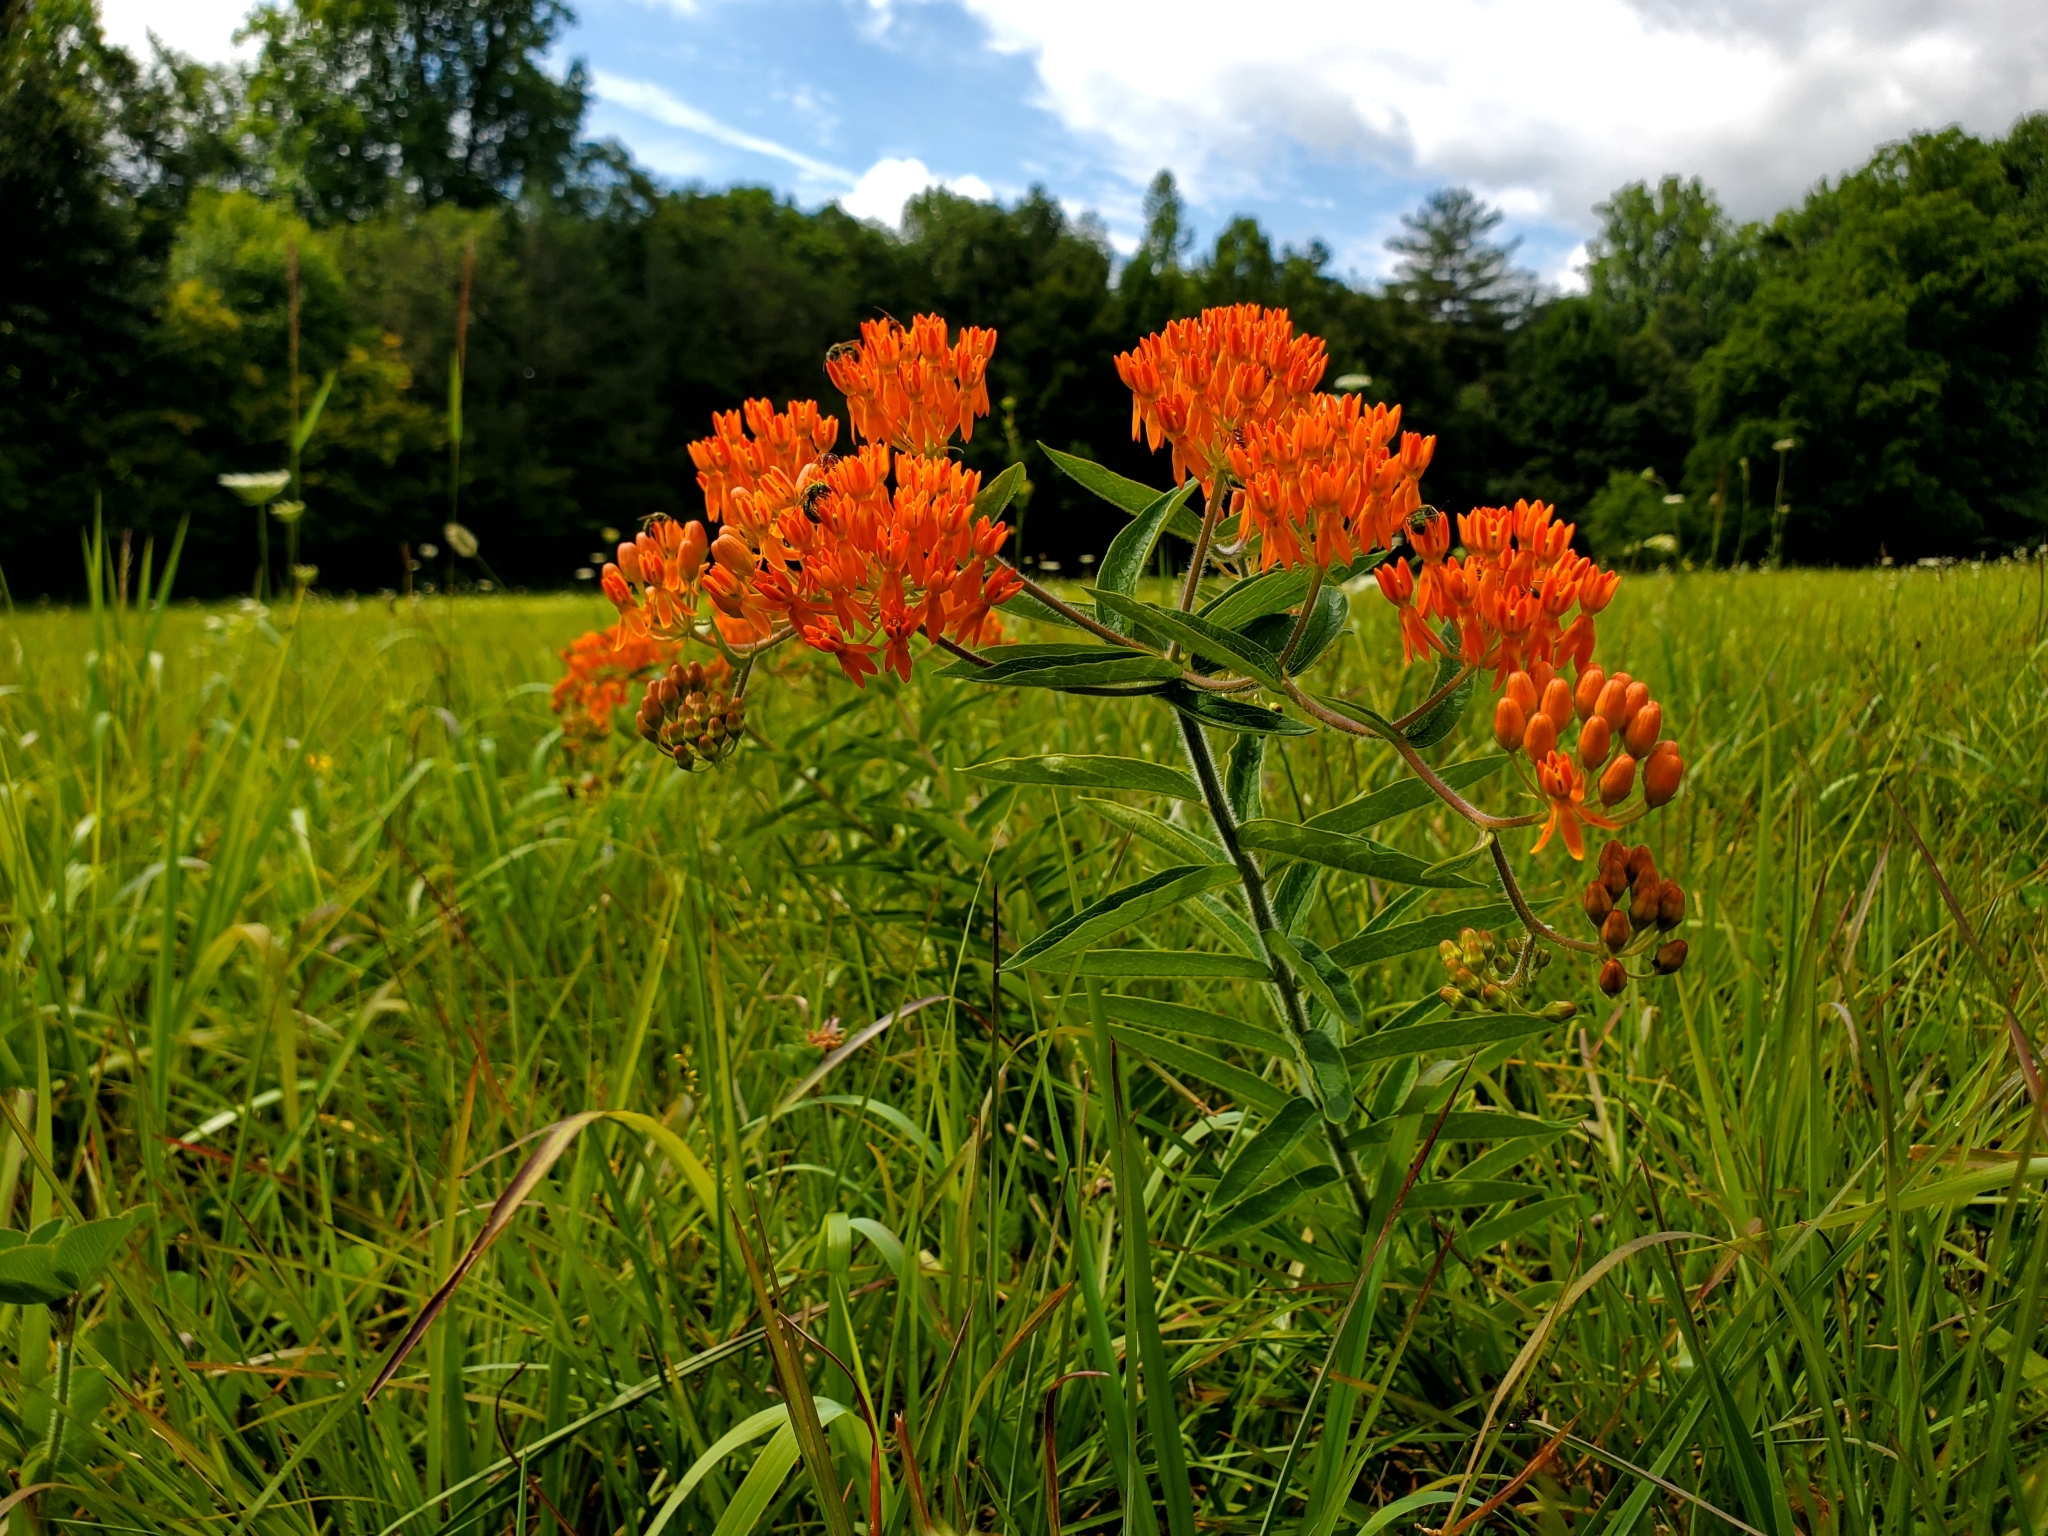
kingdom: Plantae
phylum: Tracheophyta
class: Magnoliopsida
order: Gentianales
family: Apocynaceae
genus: Asclepias
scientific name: Asclepias tuberosa
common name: Butterfly milkweed
